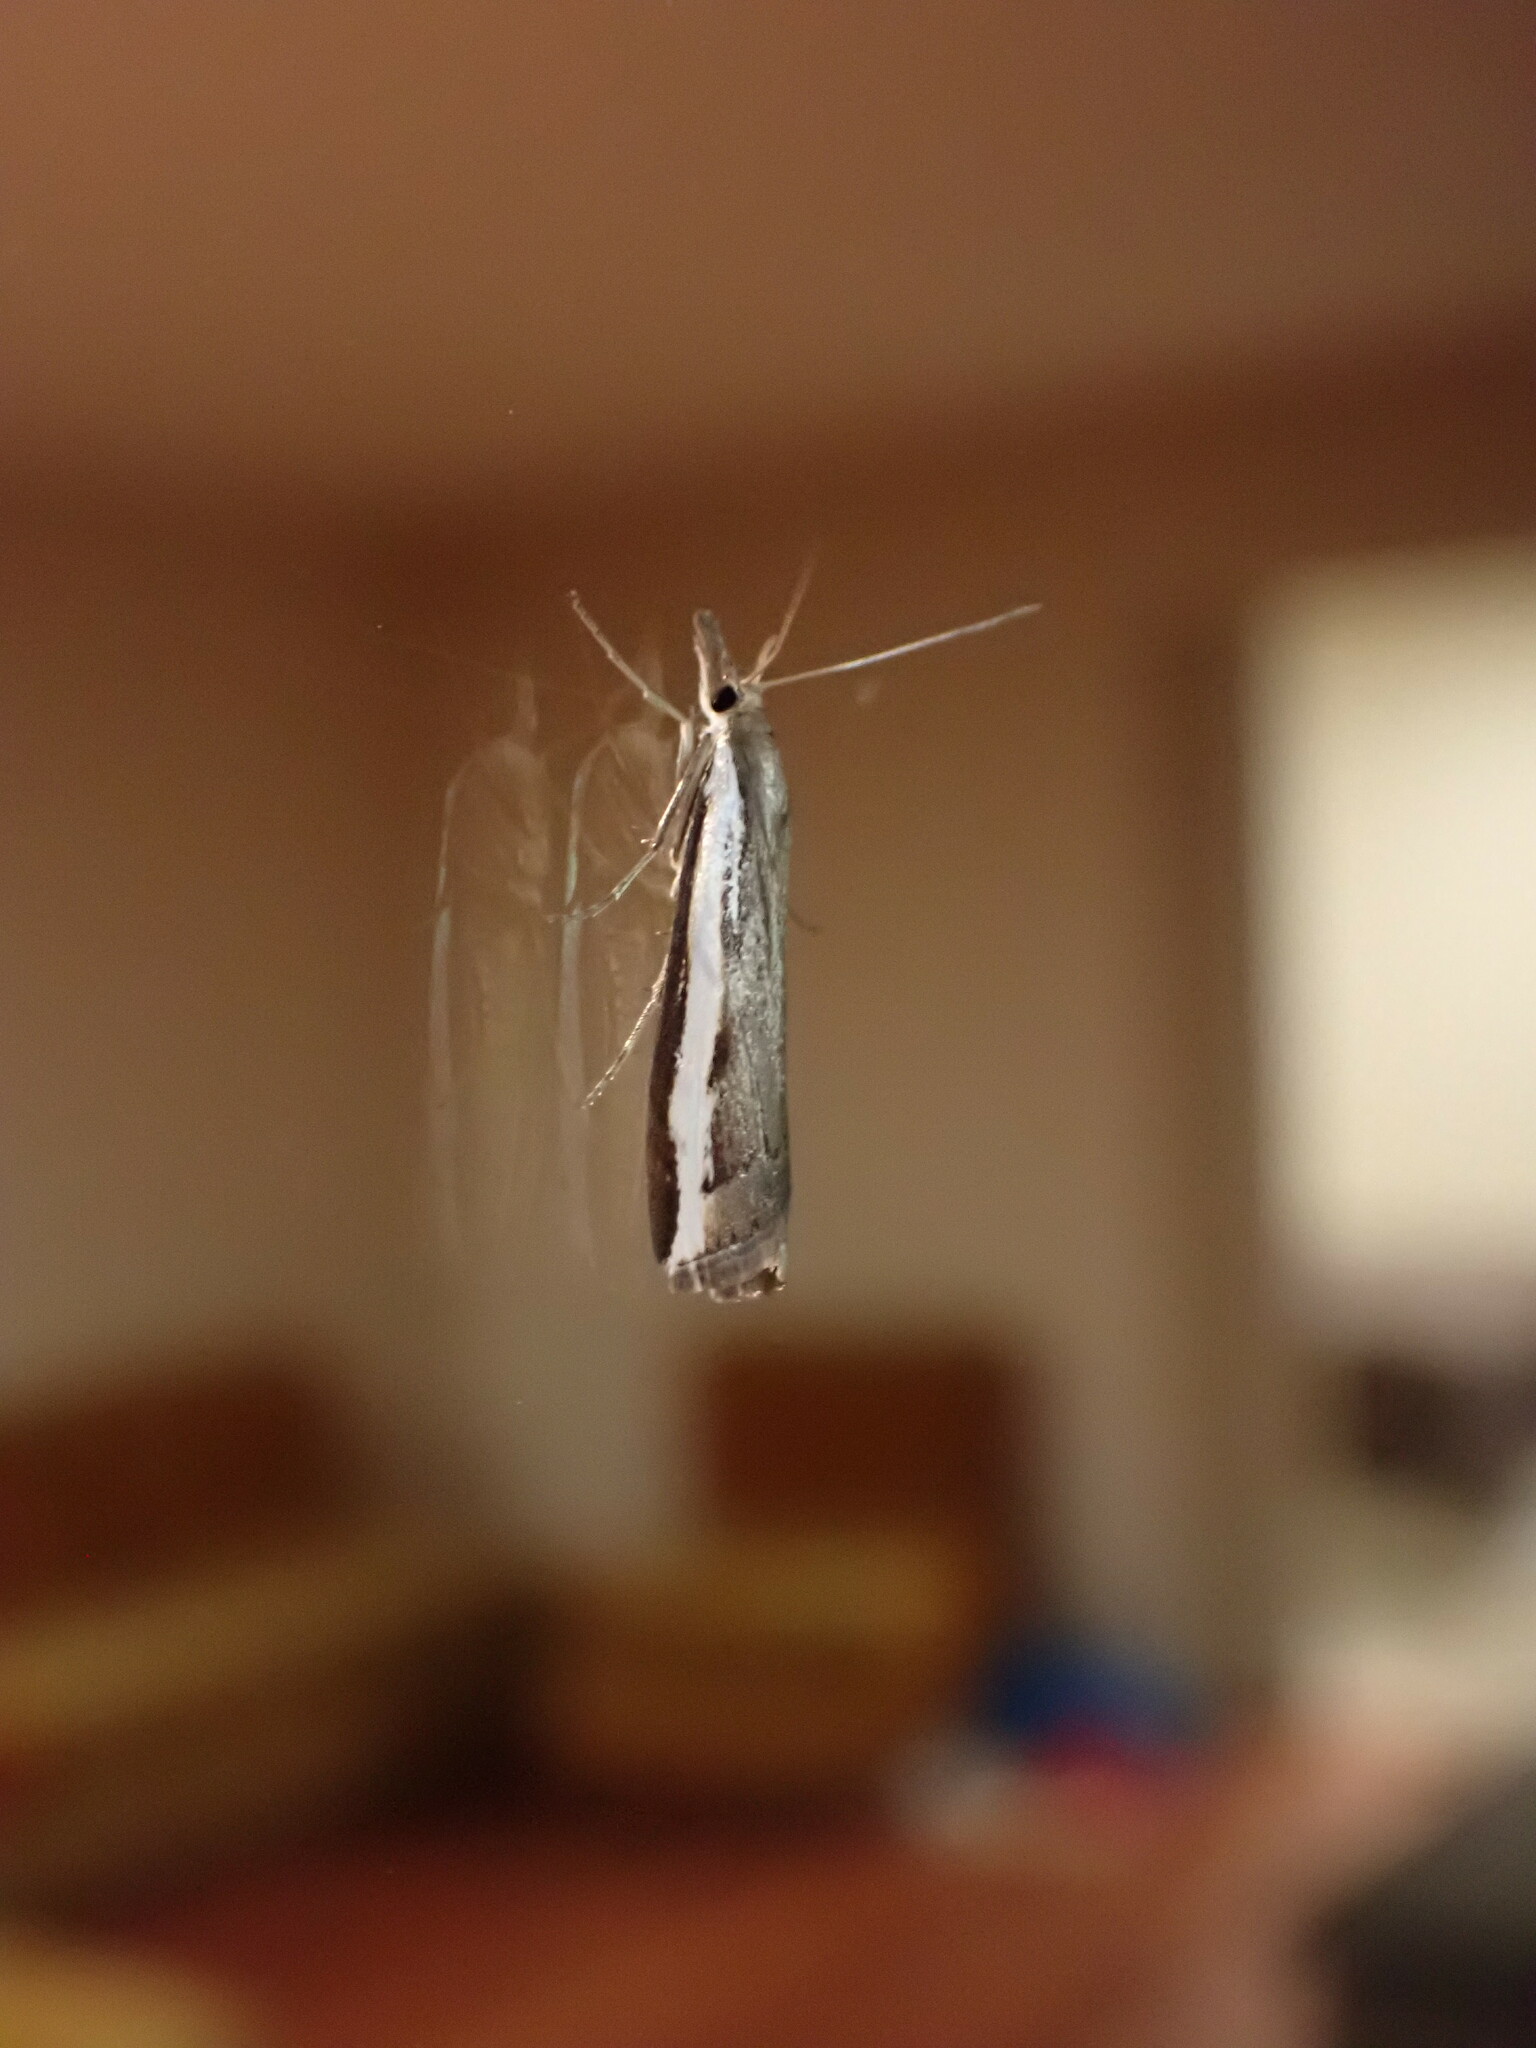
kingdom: Animalia
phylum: Arthropoda
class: Insecta
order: Lepidoptera
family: Crambidae
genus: Orocrambus
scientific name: Orocrambus flexuosellus
